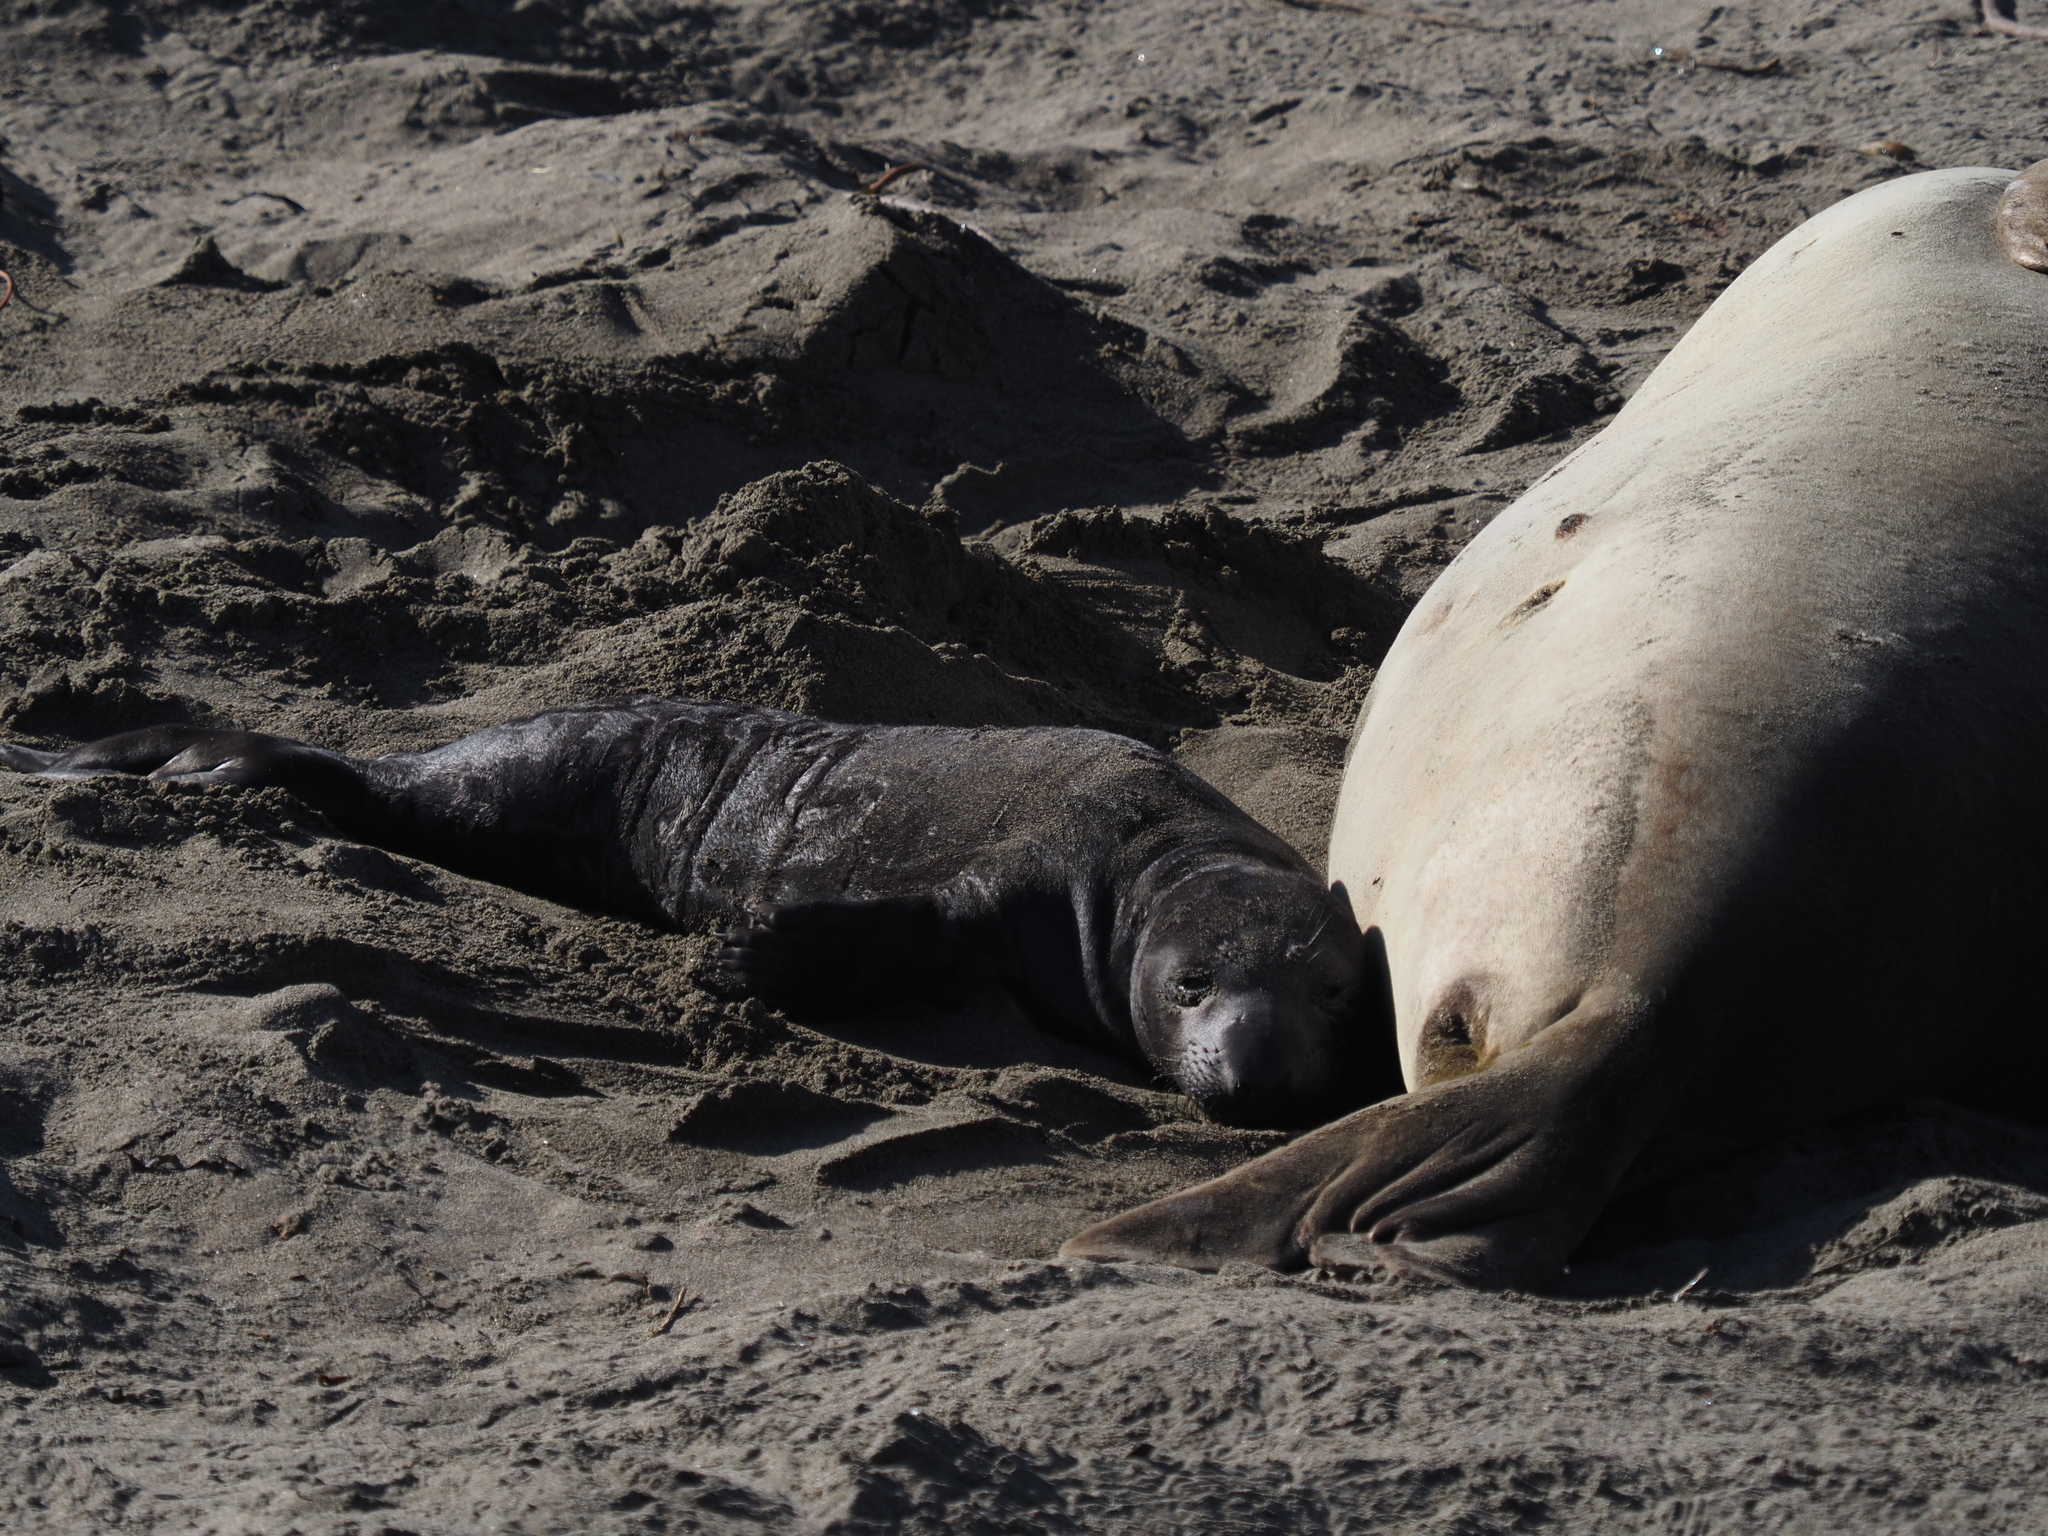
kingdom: Animalia
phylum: Chordata
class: Mammalia
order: Carnivora
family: Phocidae
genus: Mirounga
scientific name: Mirounga angustirostris
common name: Northern elephant seal
